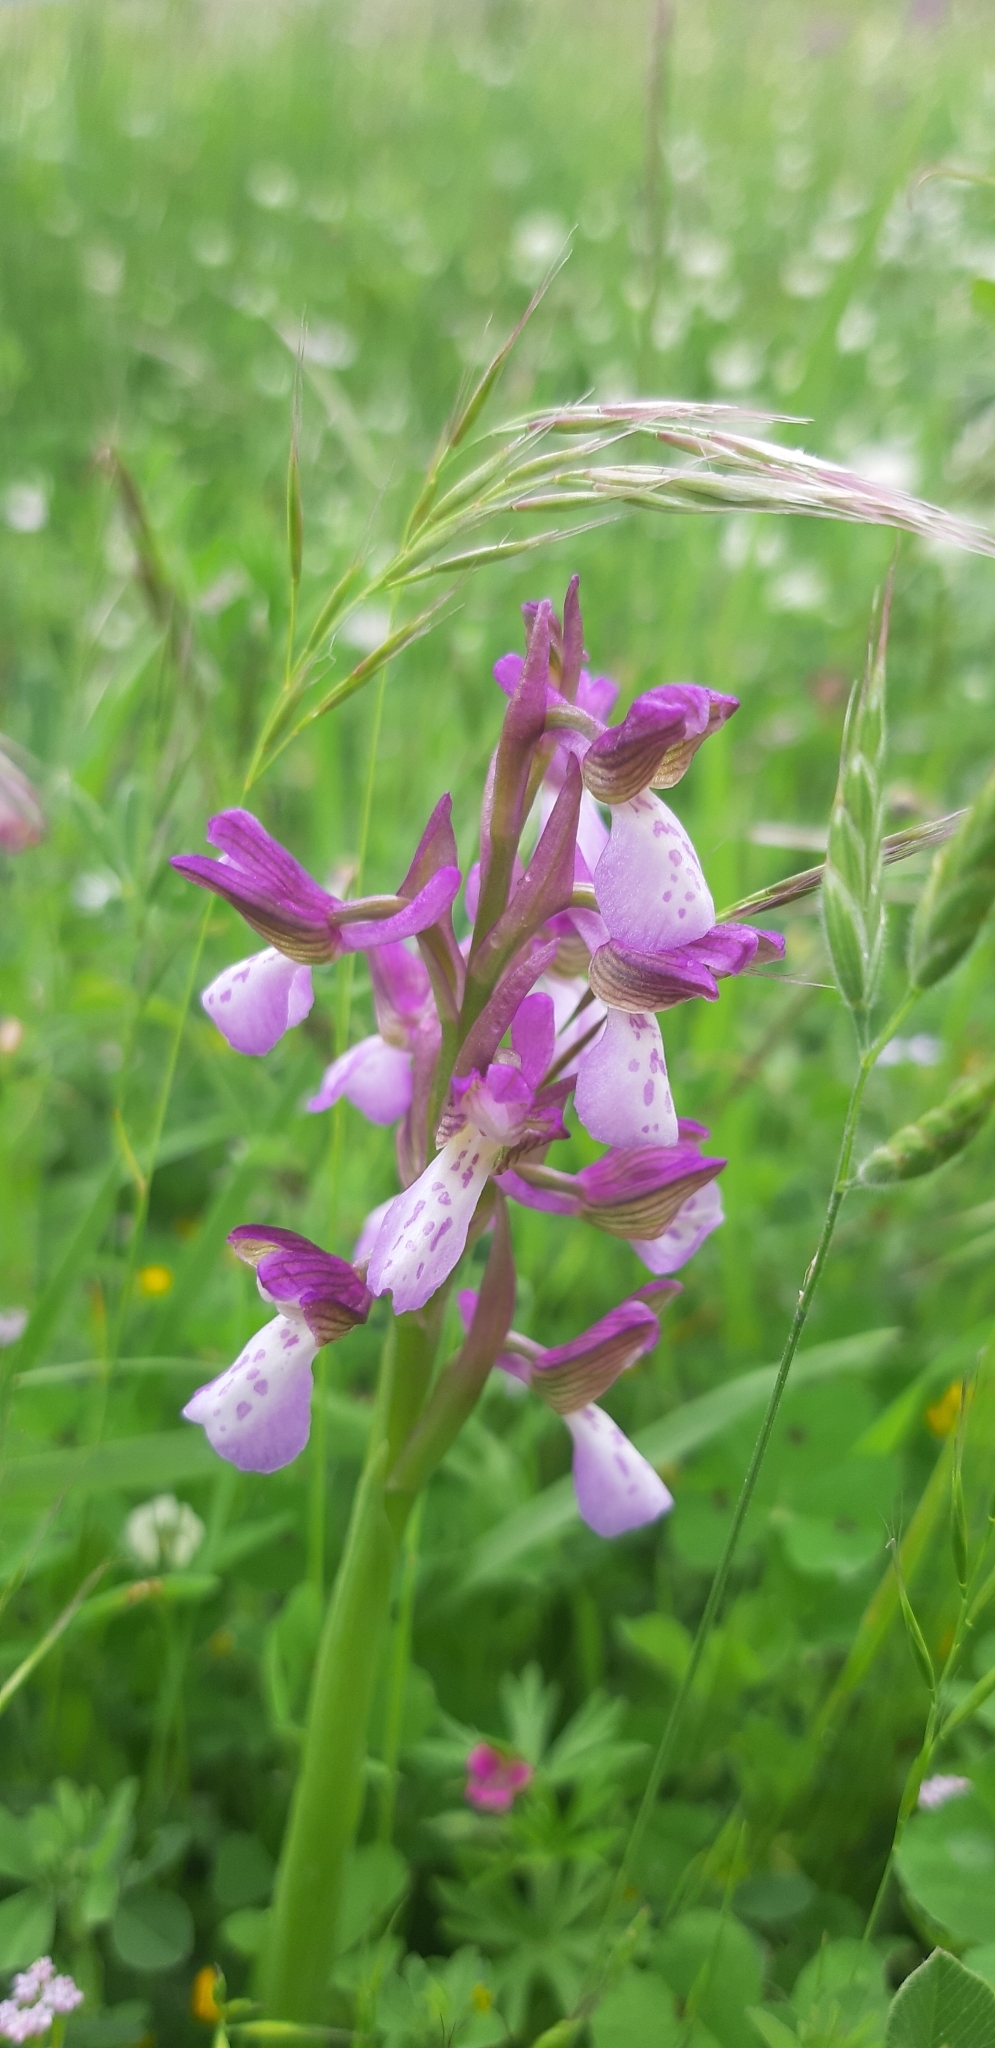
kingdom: Plantae
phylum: Tracheophyta
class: Liliopsida
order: Asparagales
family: Orchidaceae
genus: Anacamptis
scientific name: Anacamptis morio
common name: Green-winged orchid
